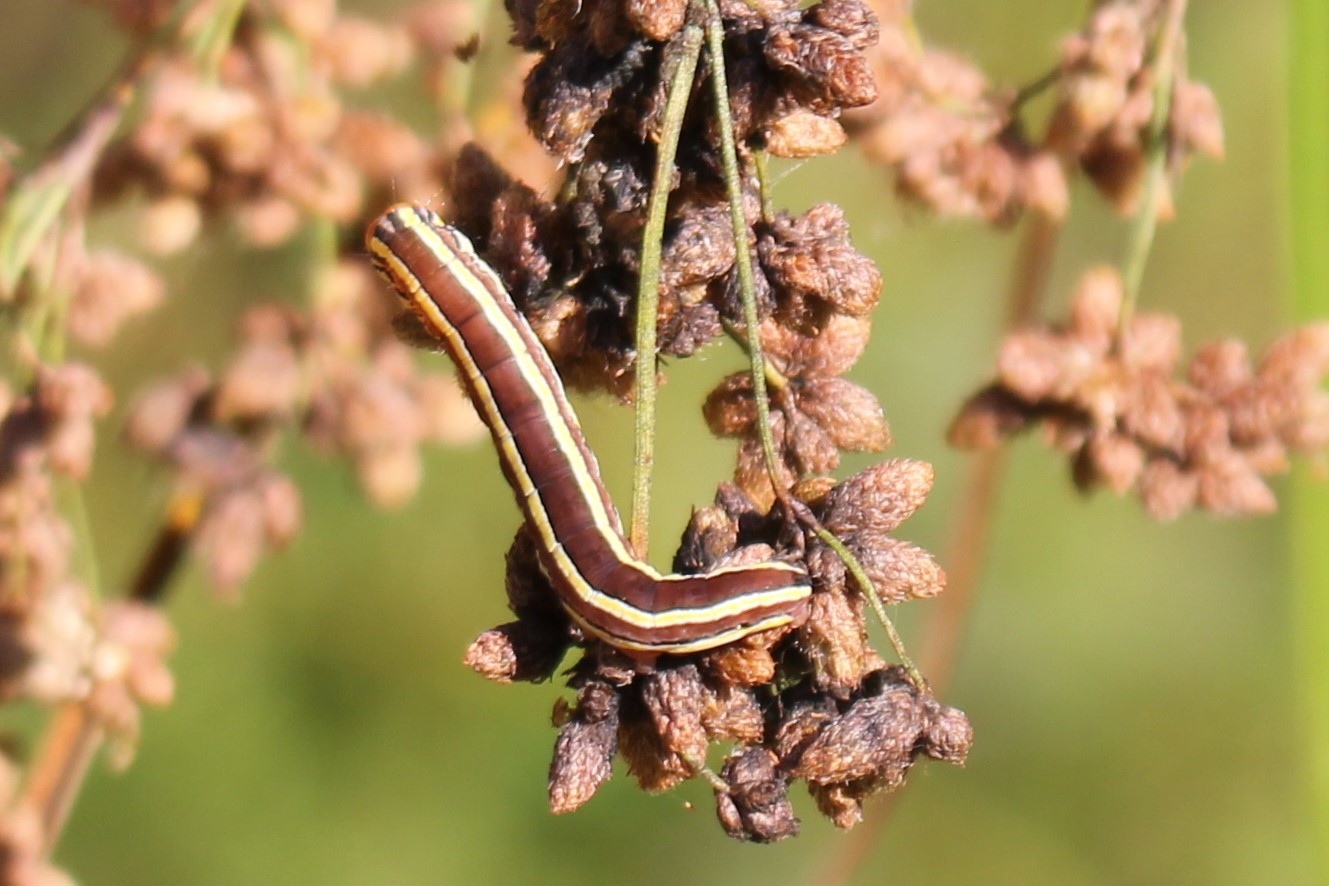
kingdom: Animalia
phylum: Arthropoda
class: Insecta
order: Lepidoptera
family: Noctuidae
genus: Trichordestra
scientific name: Trichordestra legitima
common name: Striped garden caterpillar
